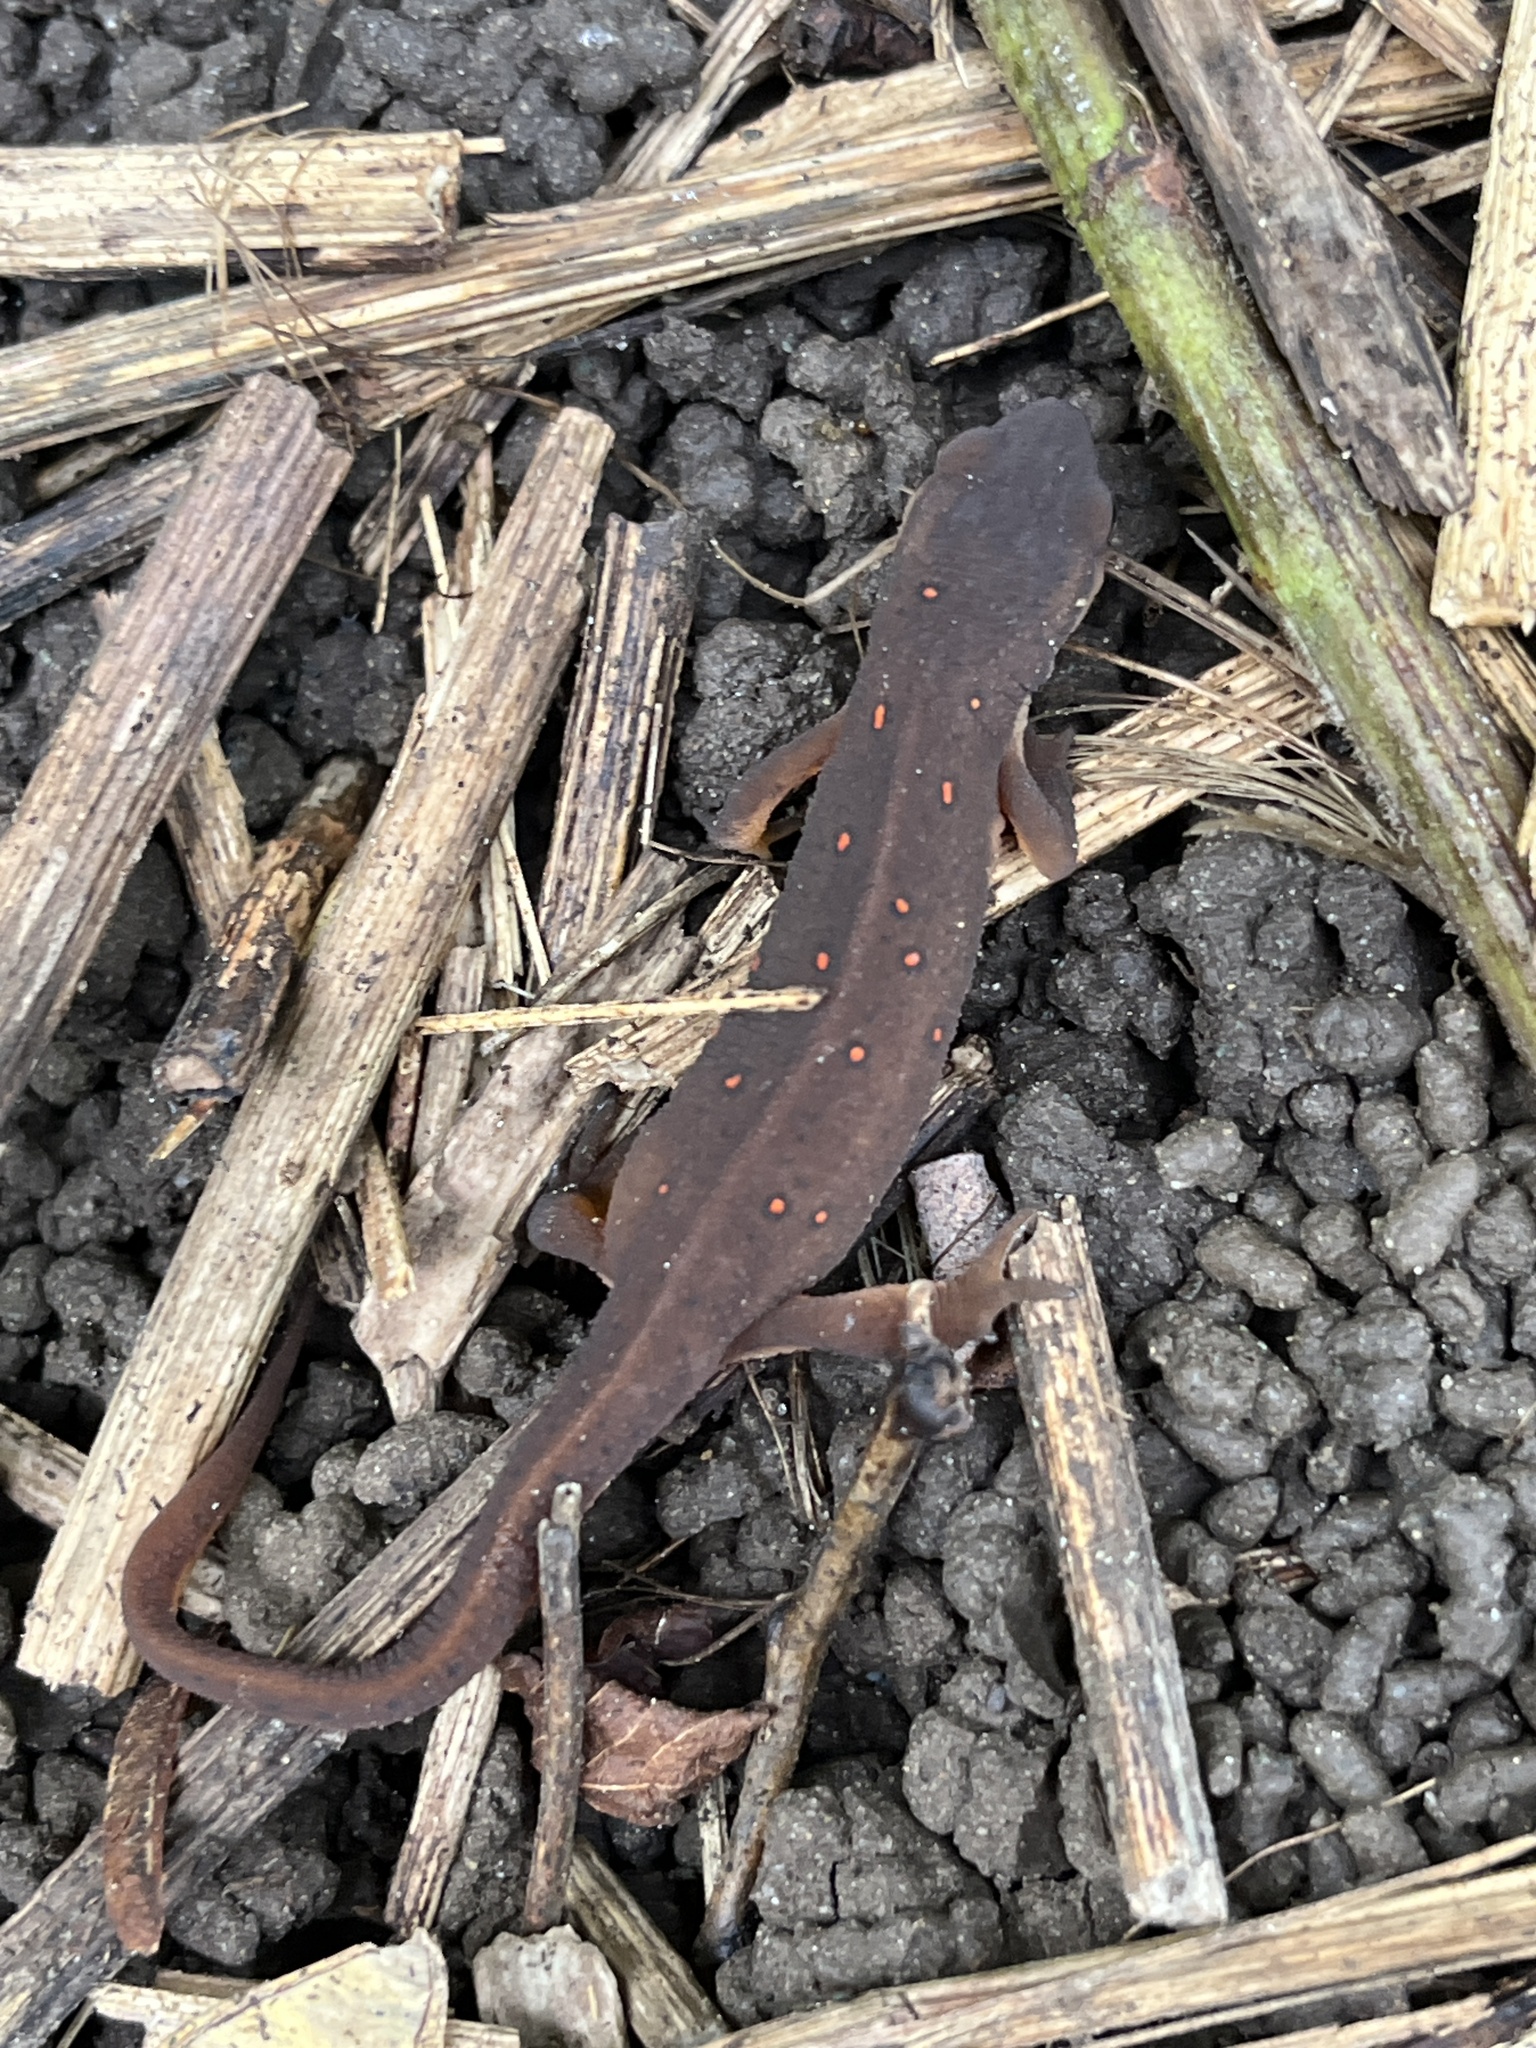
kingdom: Animalia
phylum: Chordata
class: Amphibia
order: Caudata
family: Salamandridae
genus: Notophthalmus
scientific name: Notophthalmus viridescens
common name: Eastern newt
